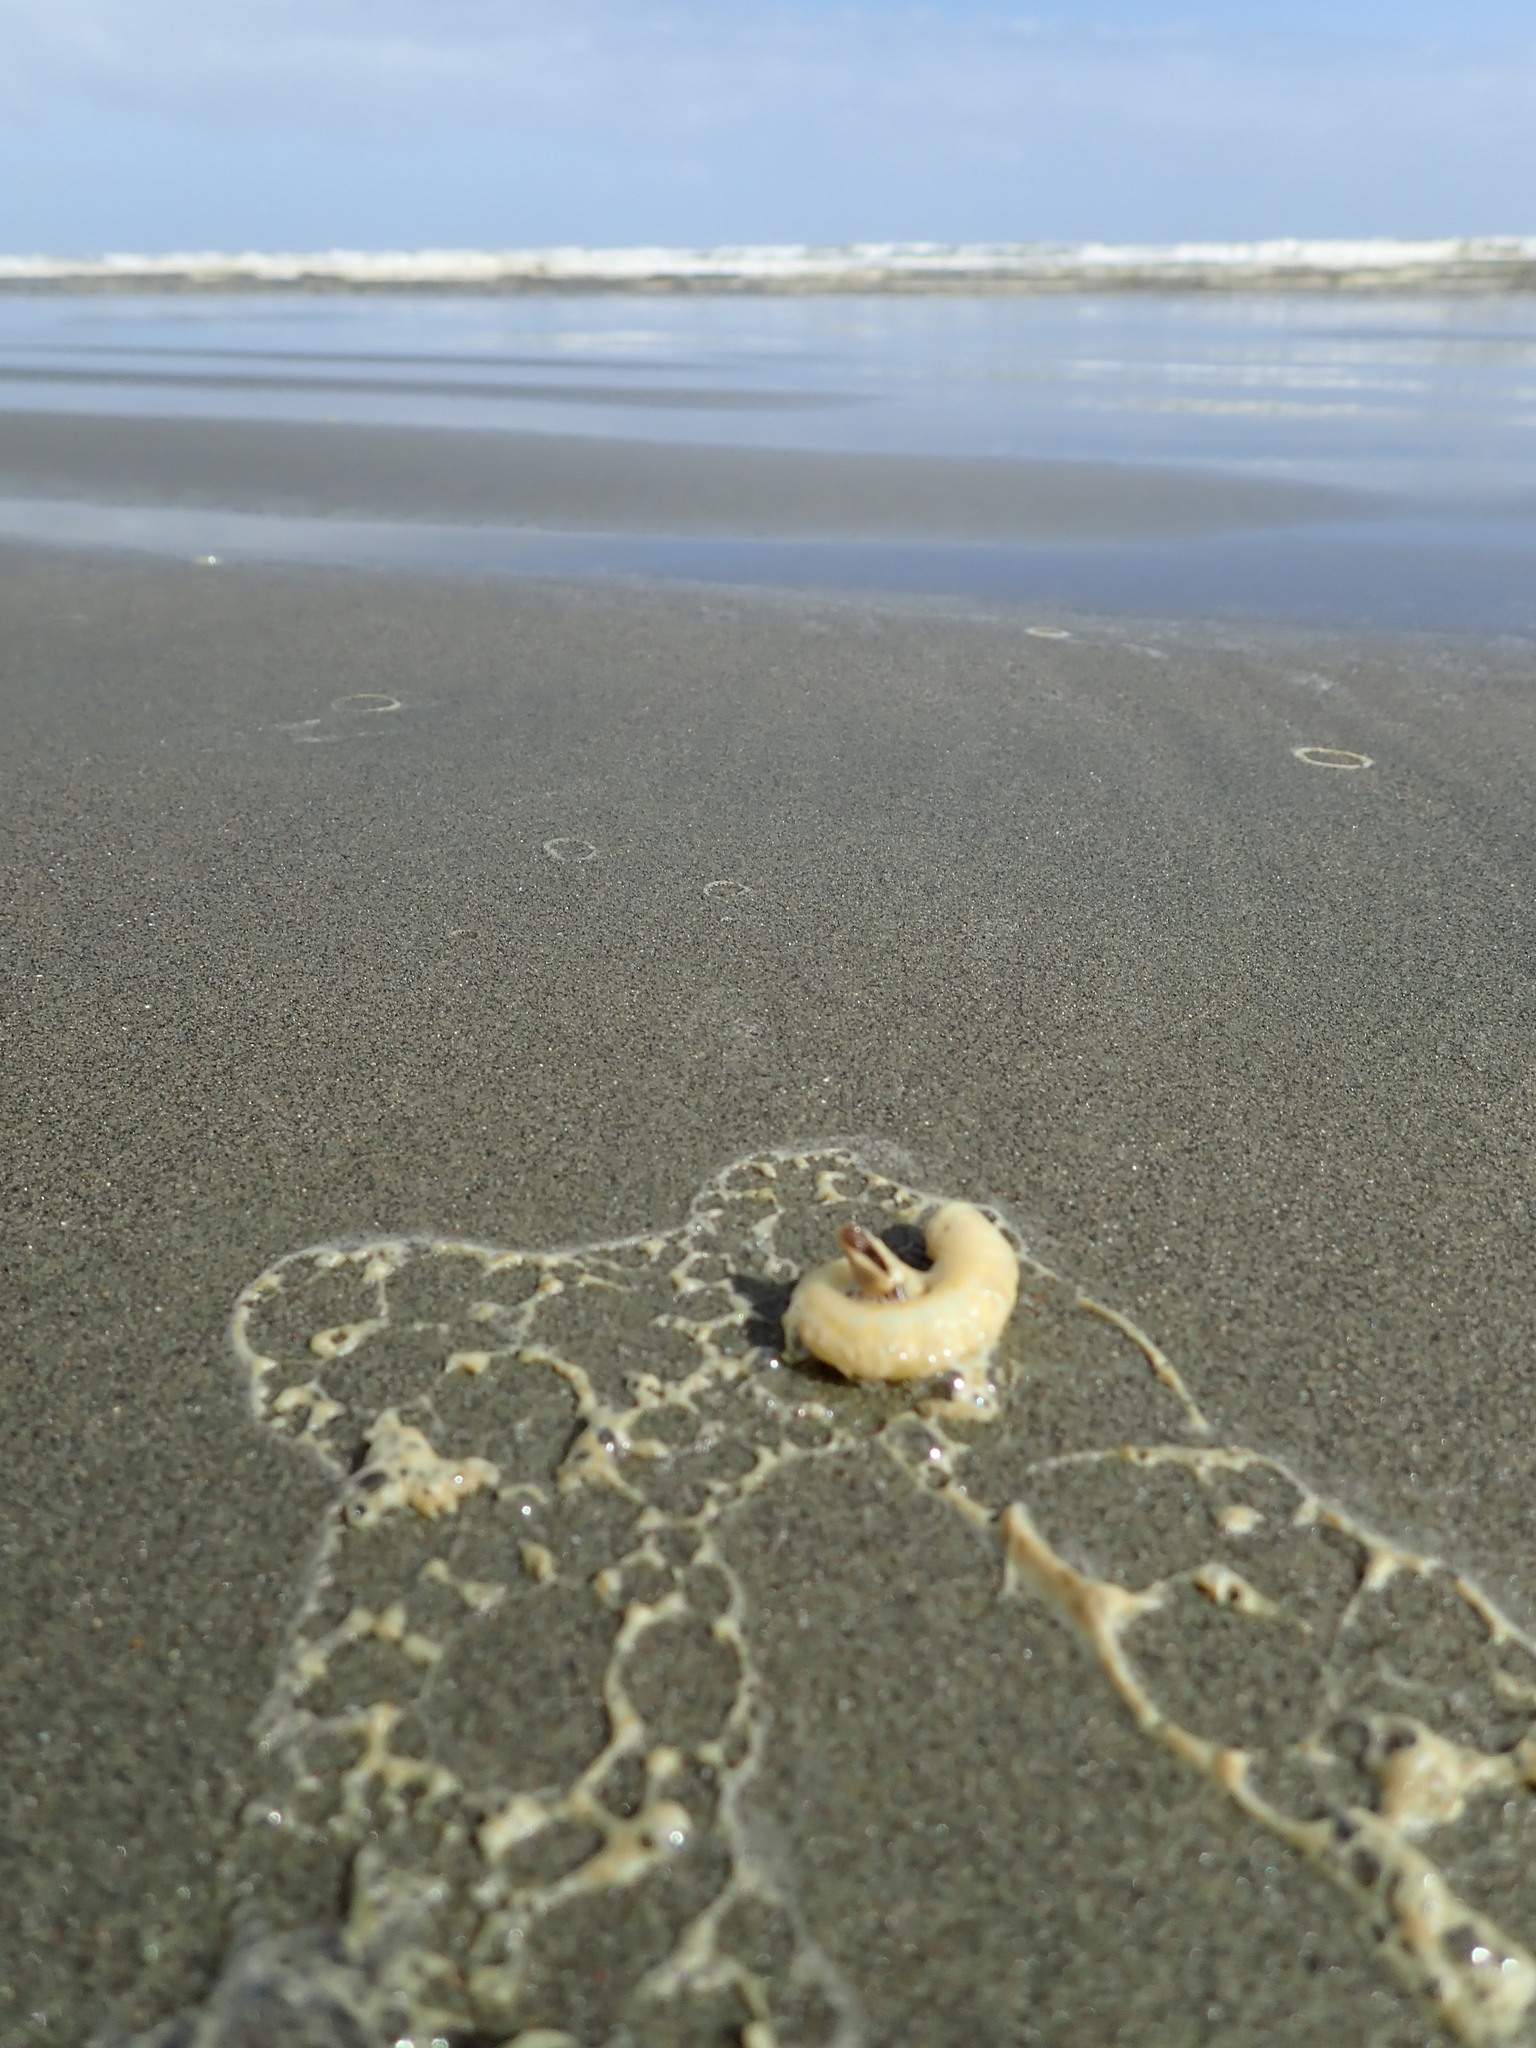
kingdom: Animalia
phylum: Arthropoda
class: Maxillopoda
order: Pedunculata
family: Lepadidae
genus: Lepas
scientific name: Lepas pectinata
